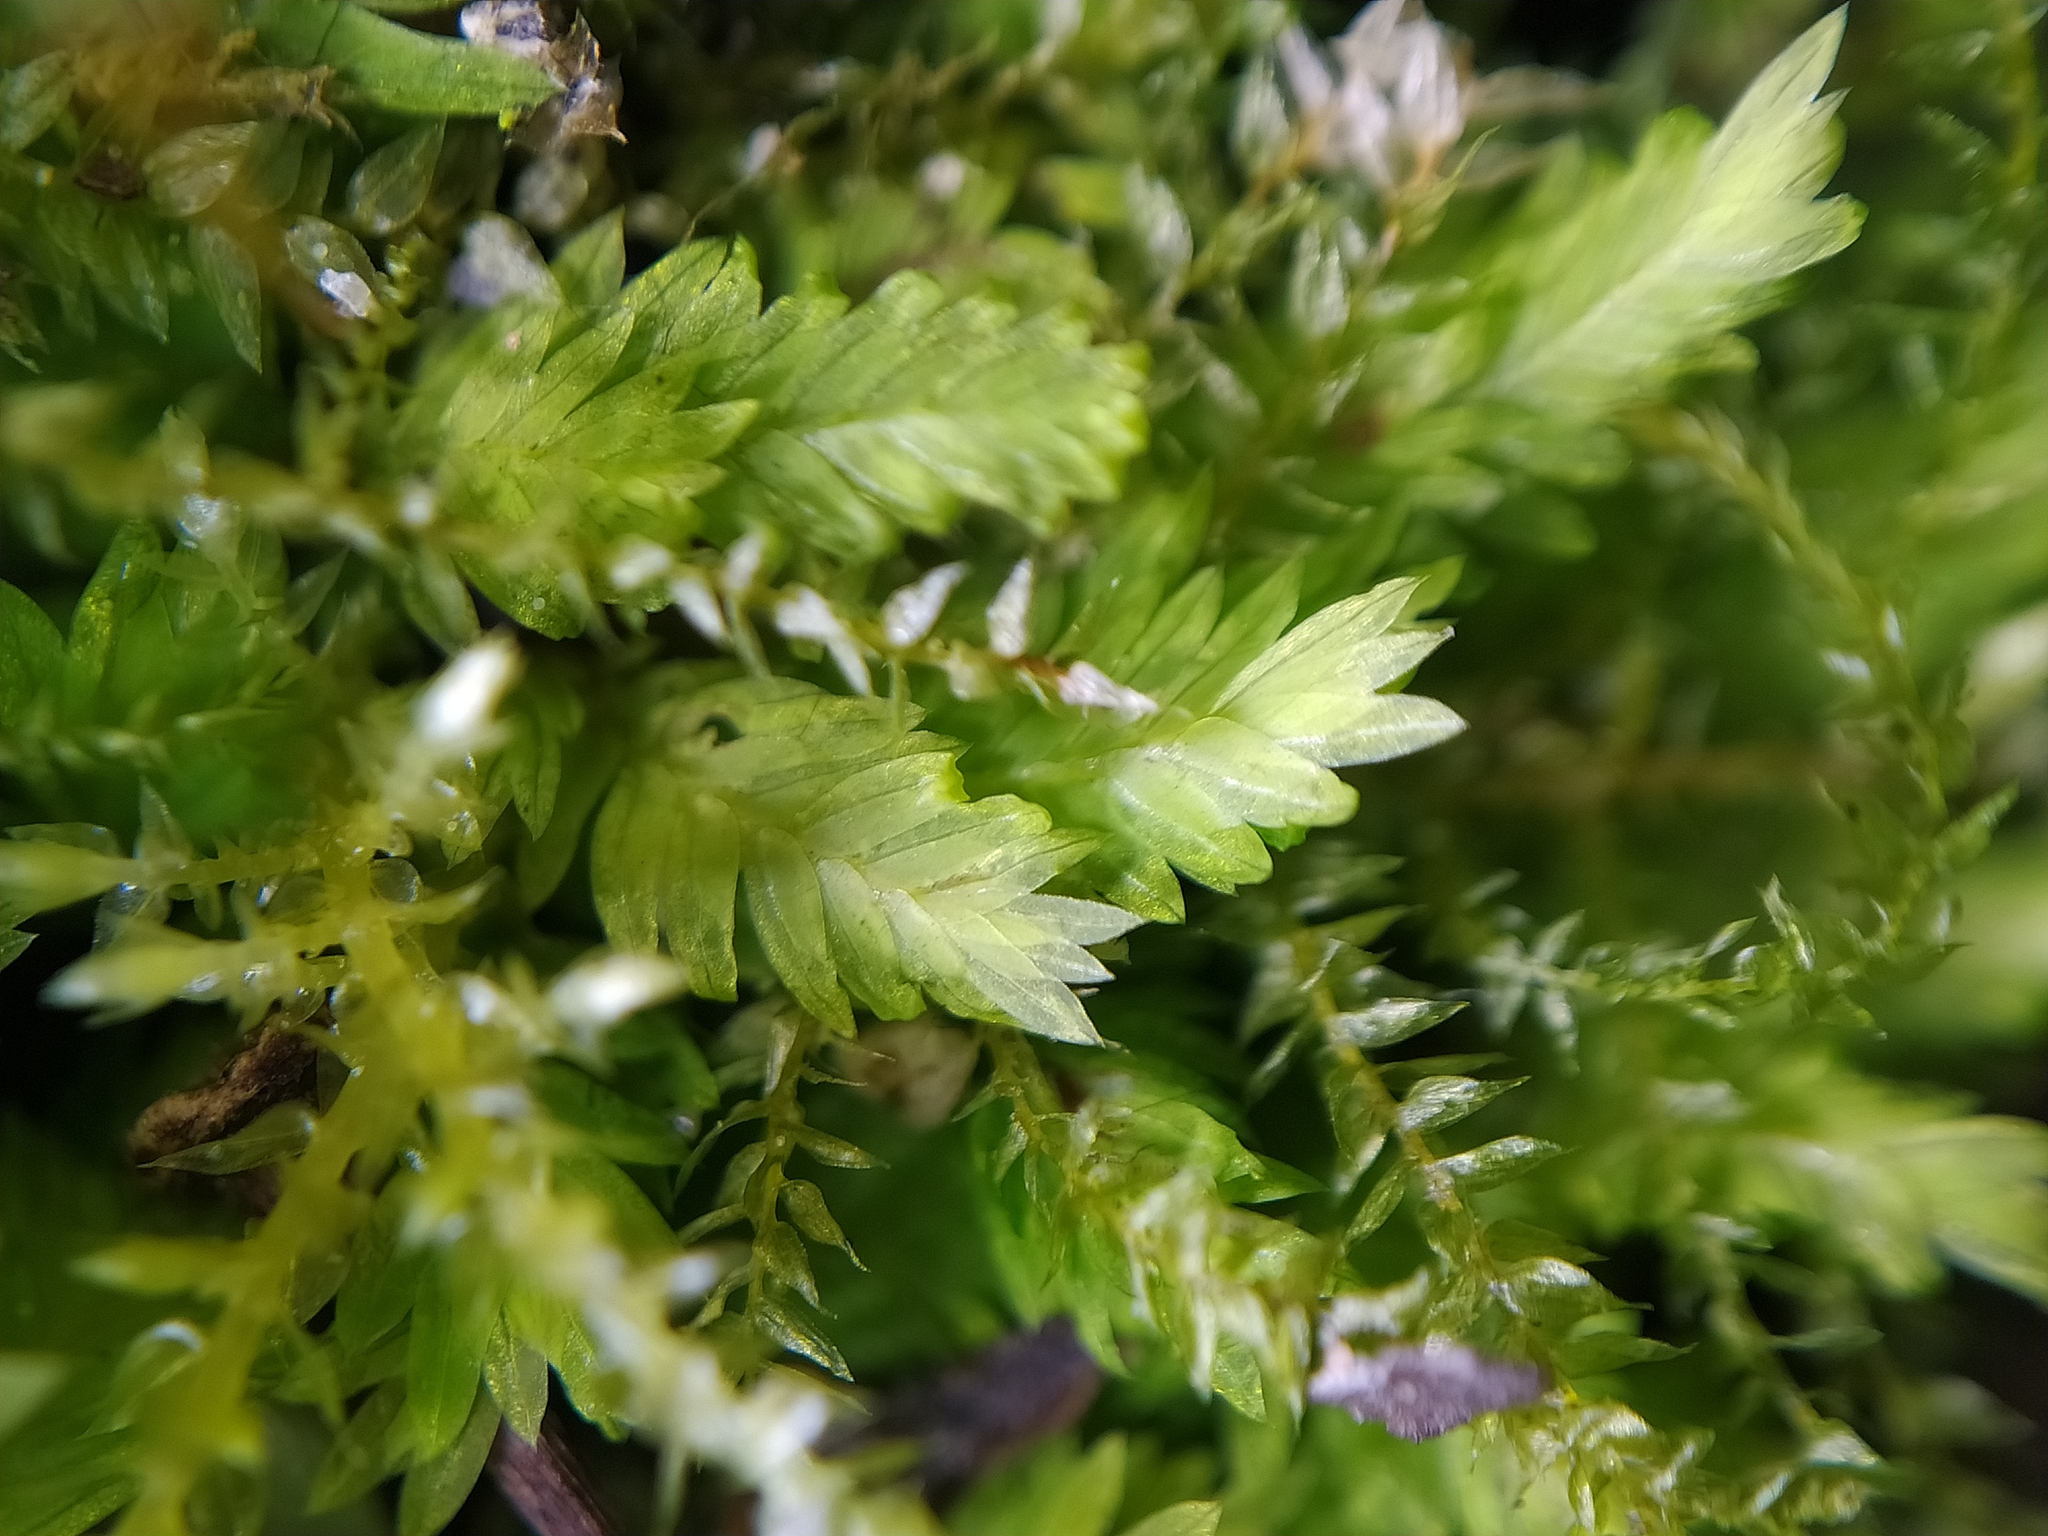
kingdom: Plantae
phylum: Bryophyta
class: Bryopsida
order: Dicranales
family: Fissidentaceae
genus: Fissidens
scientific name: Fissidens taxifolius
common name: Yew-leaved pocket moss
